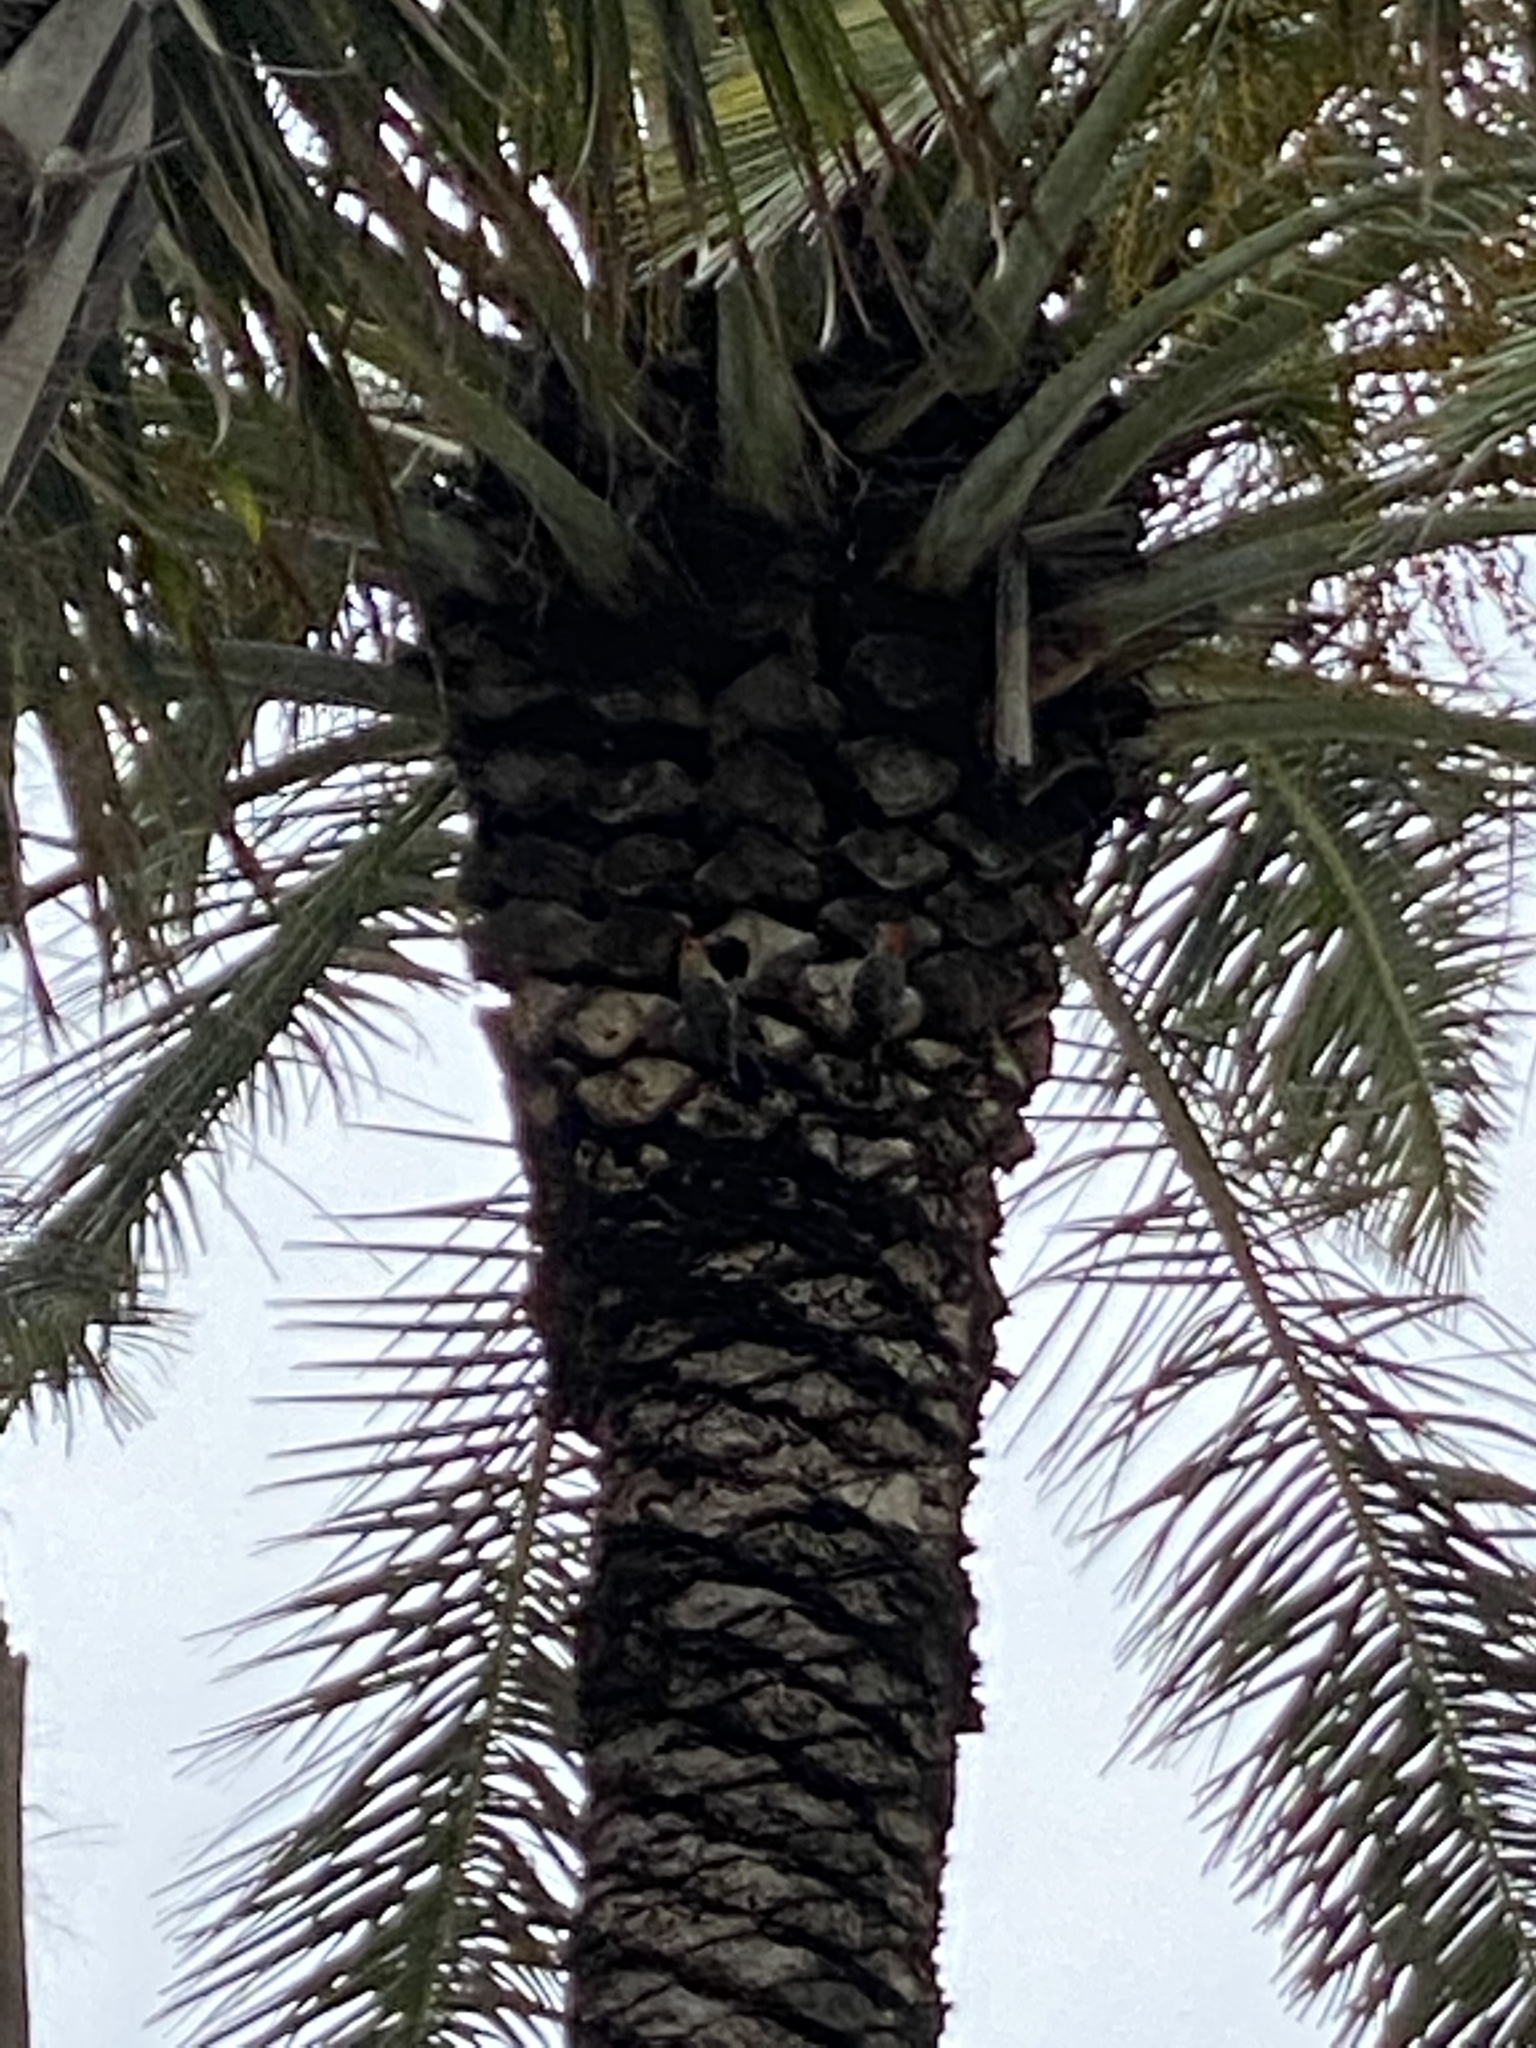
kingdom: Animalia
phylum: Chordata
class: Aves
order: Piciformes
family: Picidae
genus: Melanerpes
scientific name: Melanerpes carolinus
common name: Red-bellied woodpecker
